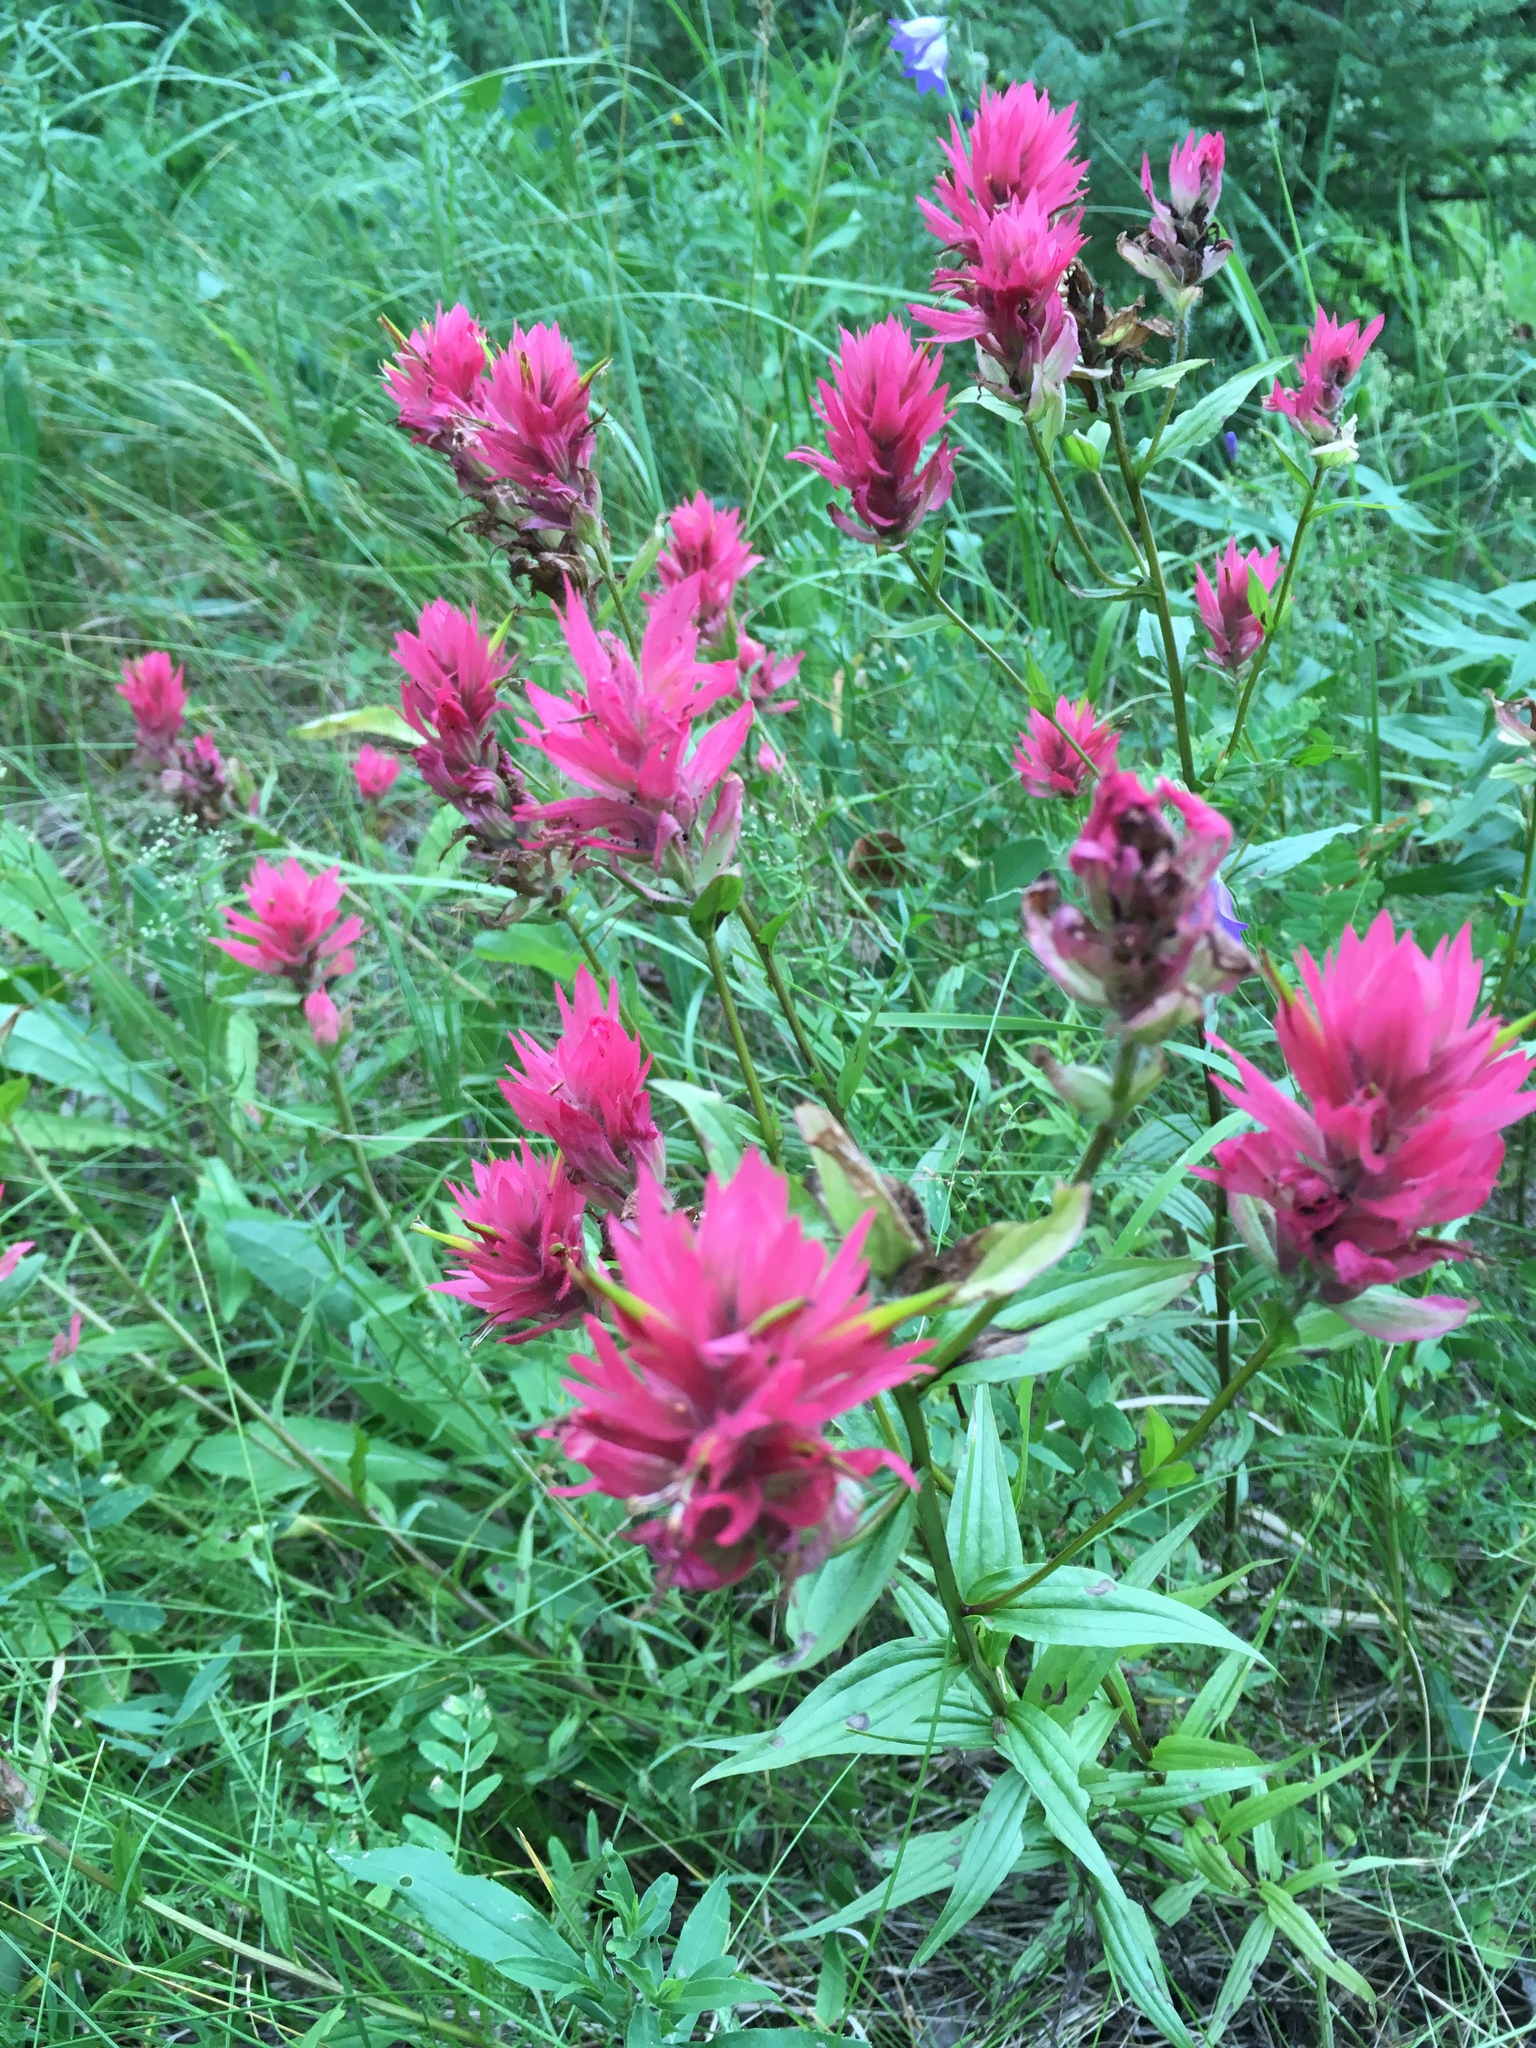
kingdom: Plantae
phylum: Tracheophyta
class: Magnoliopsida
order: Lamiales
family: Orobanchaceae
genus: Castilleja
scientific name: Castilleja miniata
